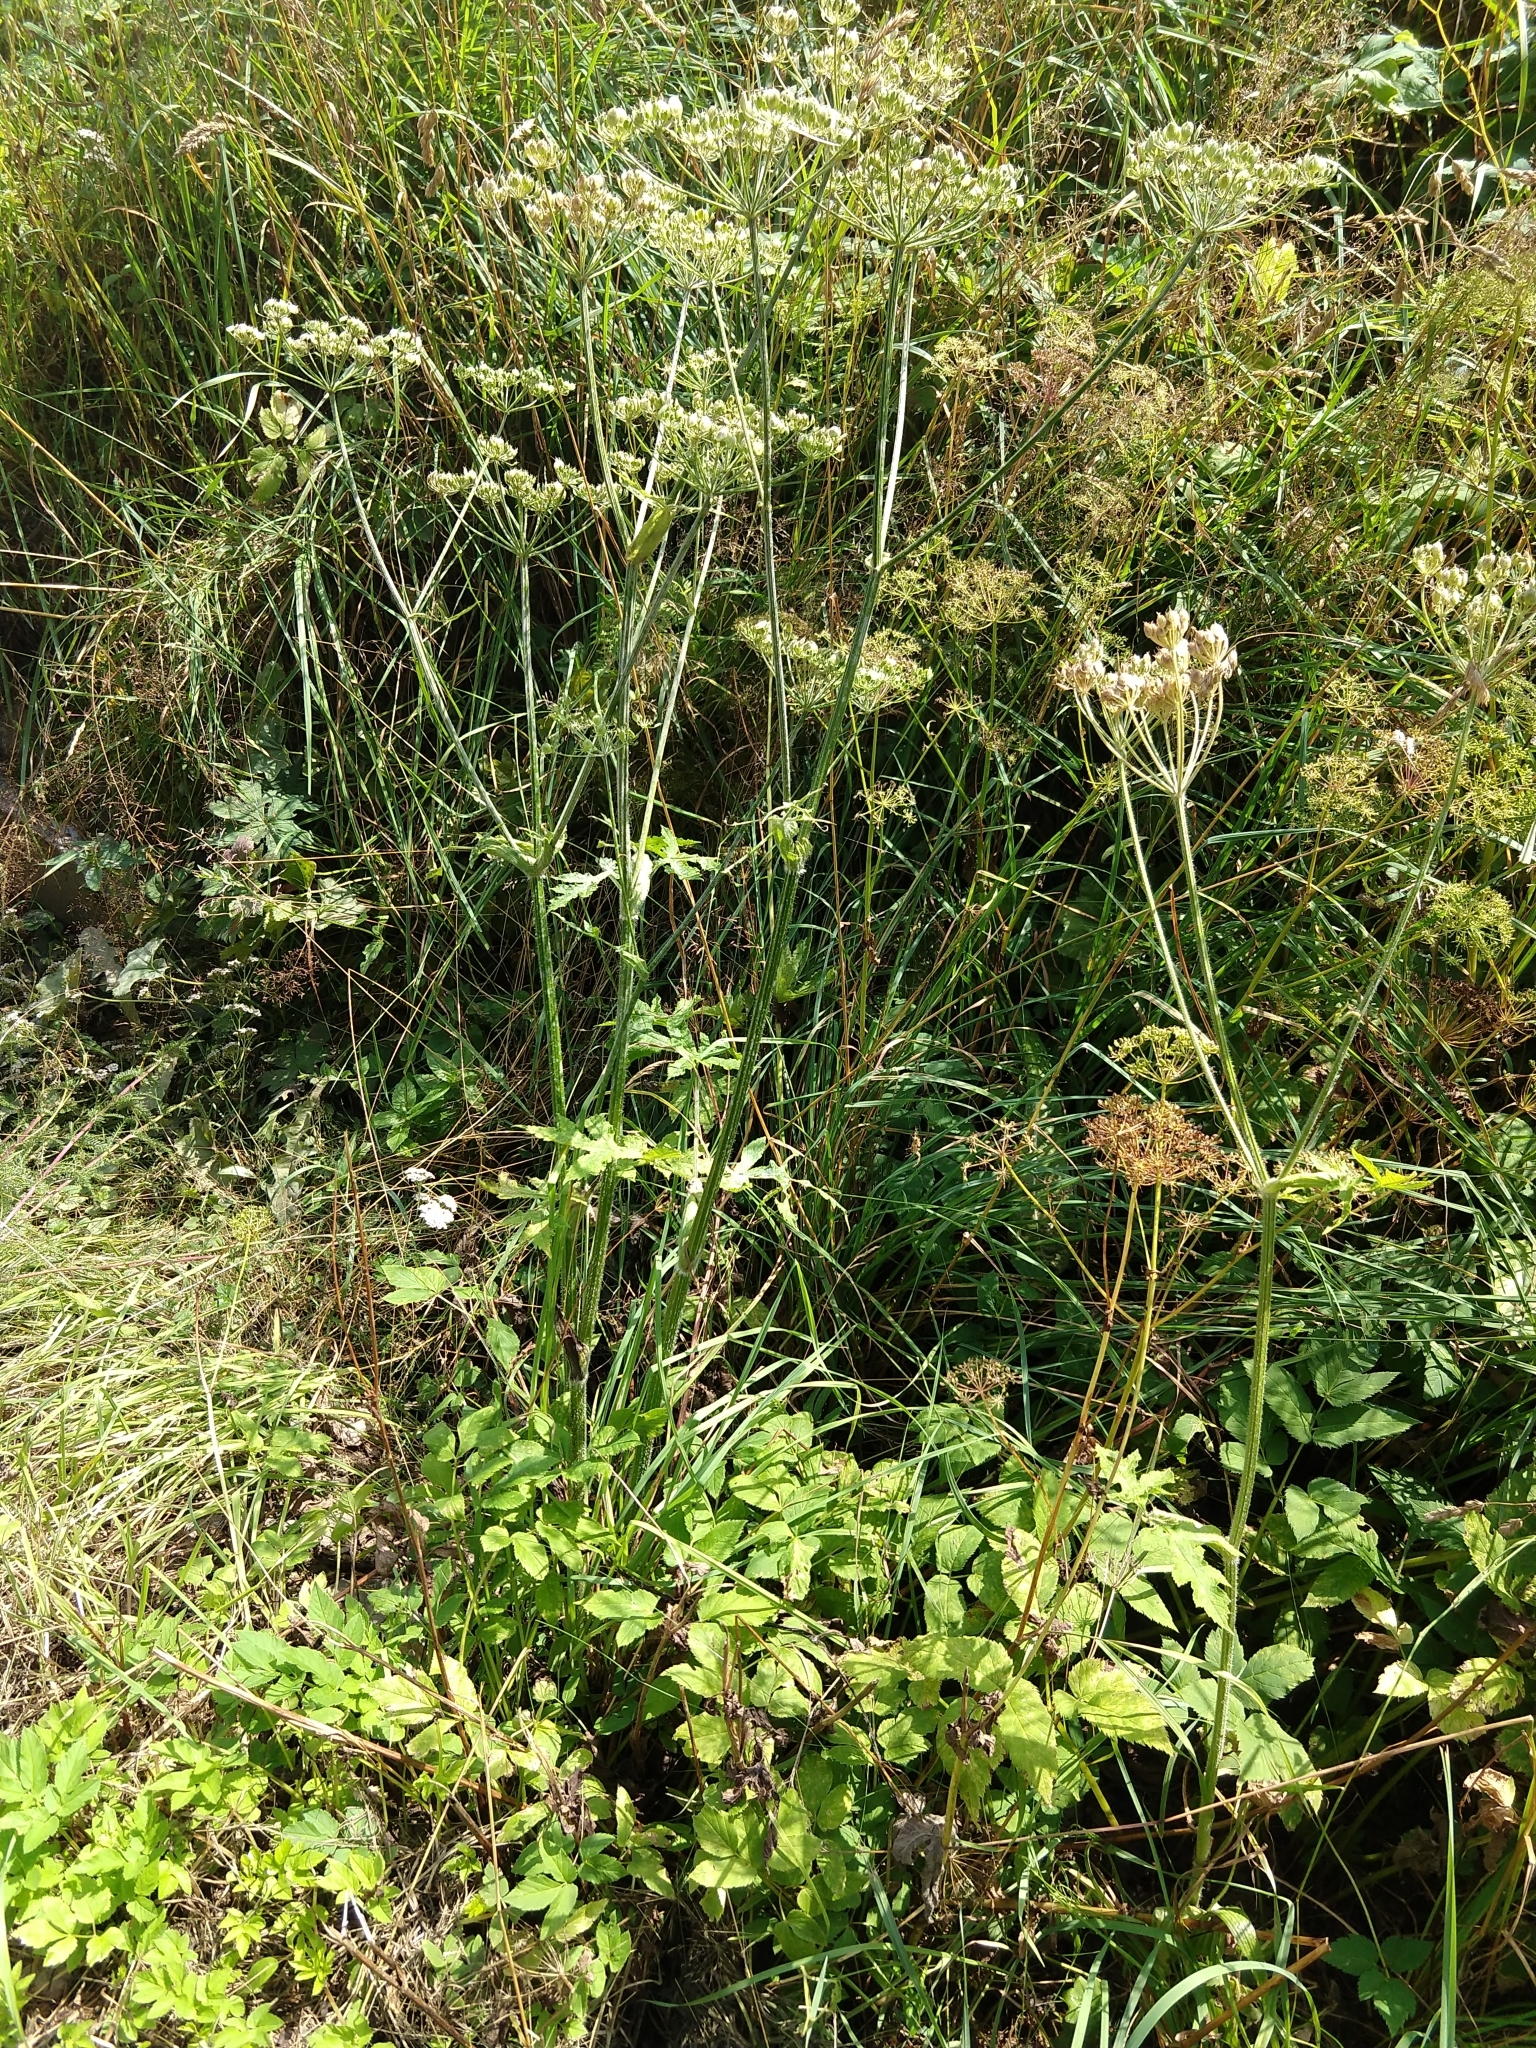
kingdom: Plantae
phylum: Tracheophyta
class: Magnoliopsida
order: Apiales
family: Apiaceae
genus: Heracleum
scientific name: Heracleum sphondylium
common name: Hogweed
